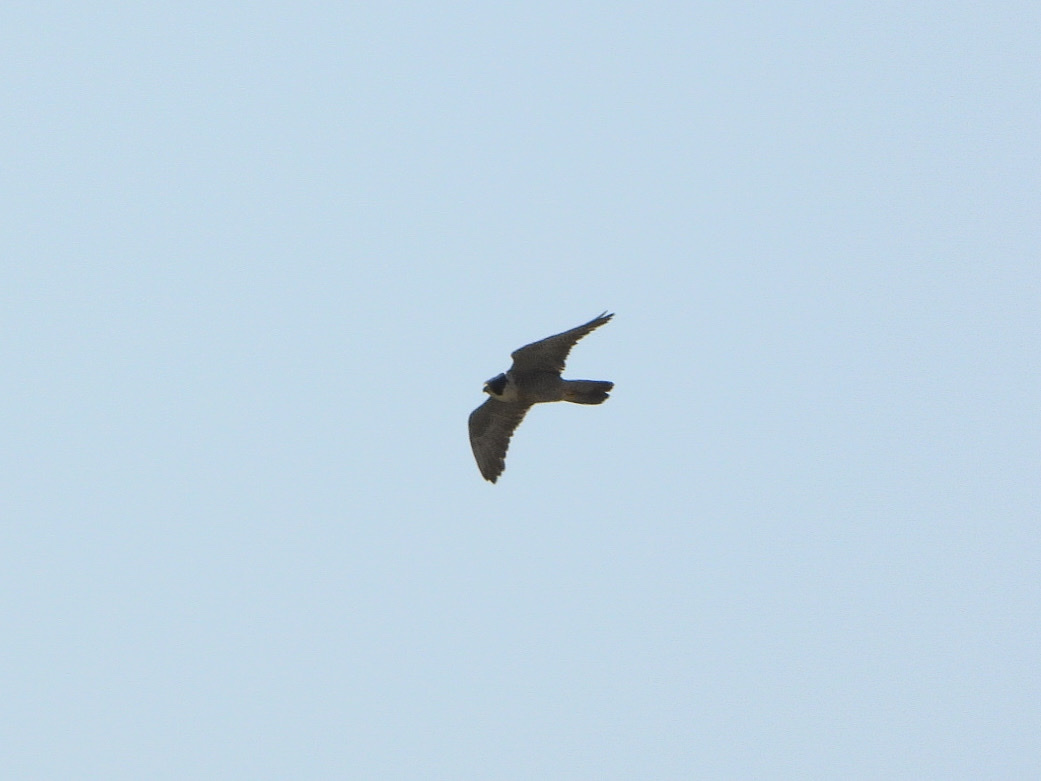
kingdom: Animalia
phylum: Chordata
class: Aves
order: Falconiformes
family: Falconidae
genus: Falco
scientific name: Falco peregrinus
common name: Peregrine falcon
